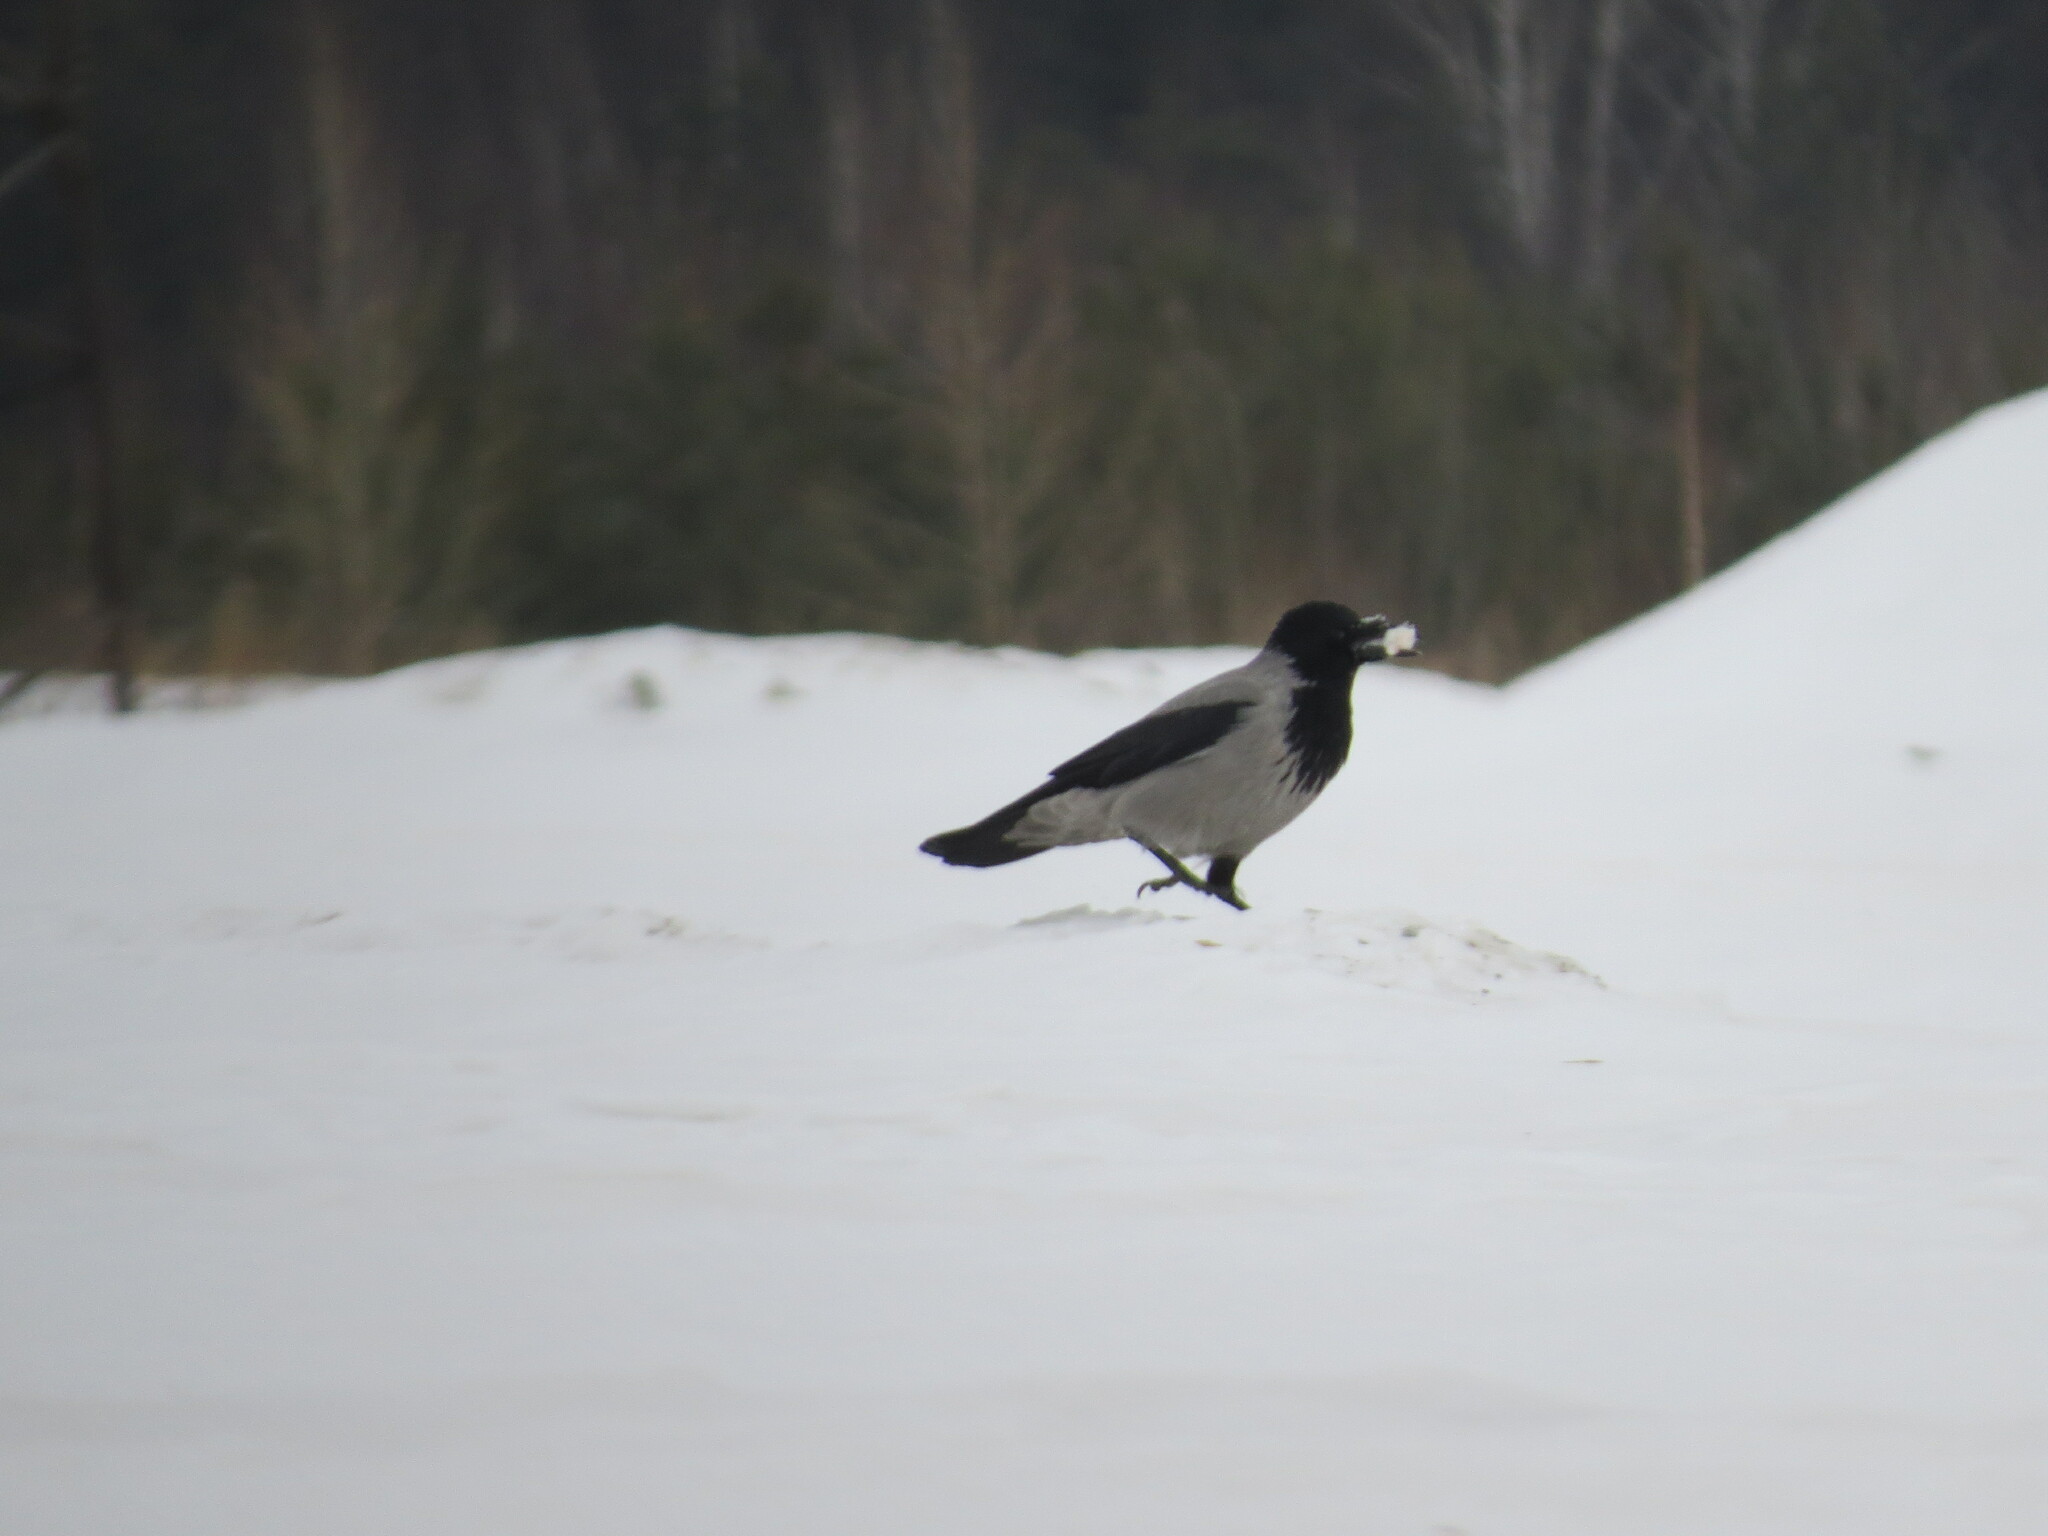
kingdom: Animalia
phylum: Chordata
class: Aves
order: Passeriformes
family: Corvidae
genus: Corvus
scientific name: Corvus cornix
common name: Hooded crow
